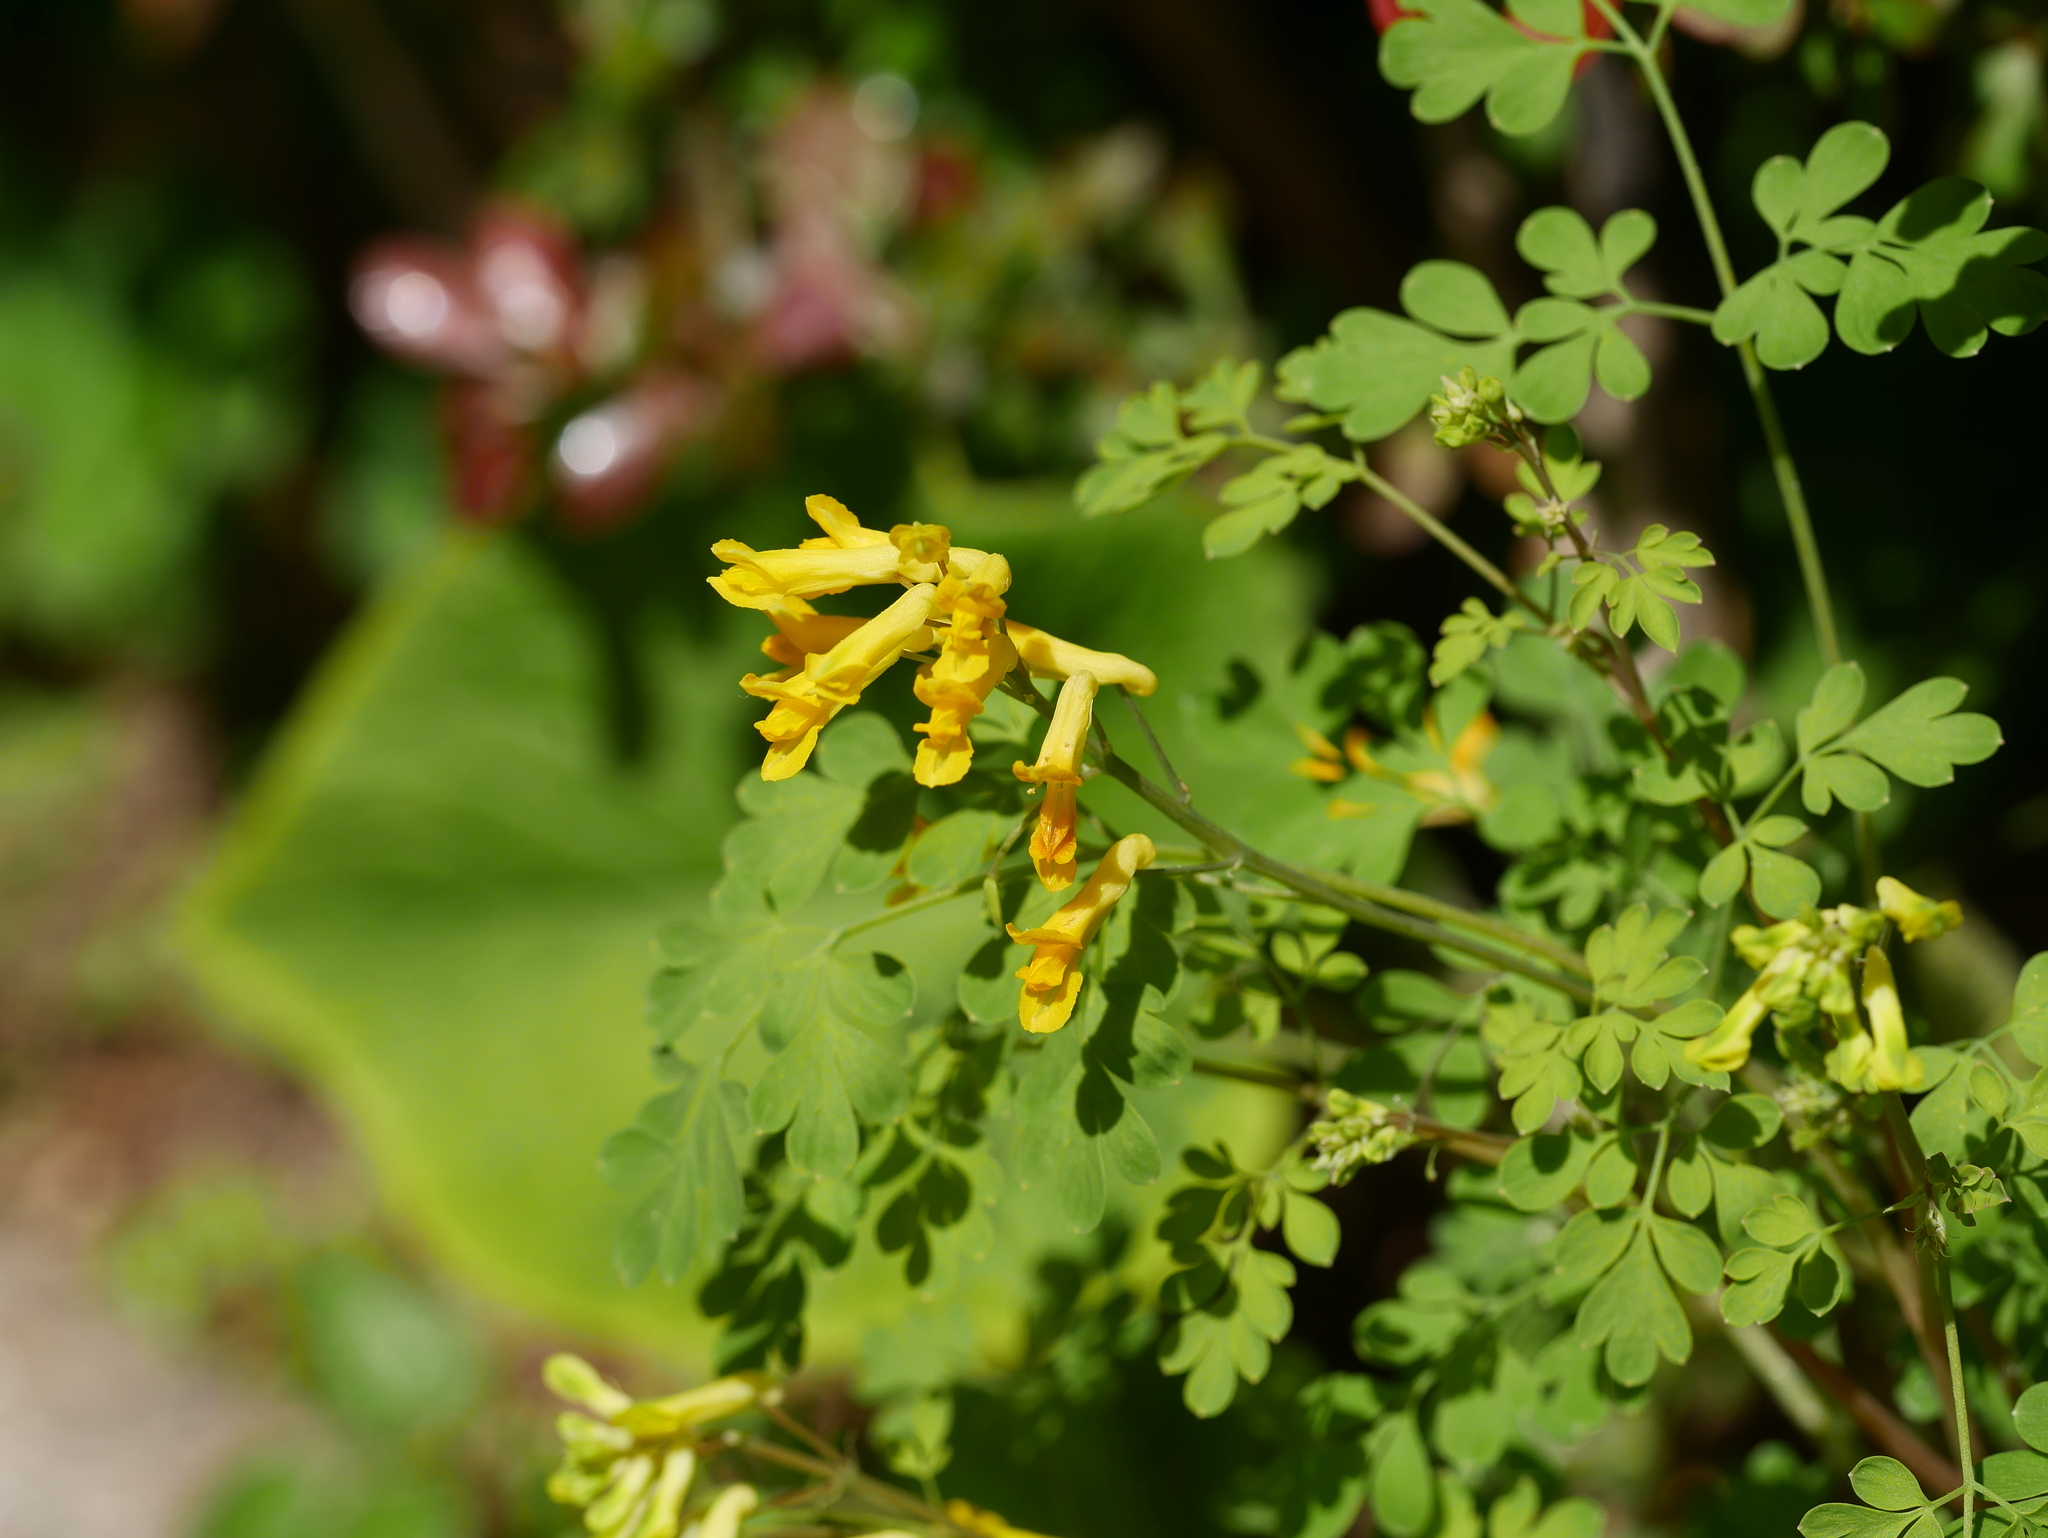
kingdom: Plantae
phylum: Tracheophyta
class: Magnoliopsida
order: Ranunculales
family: Papaveraceae
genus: Pseudofumaria
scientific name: Pseudofumaria lutea
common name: Yellow corydalis
